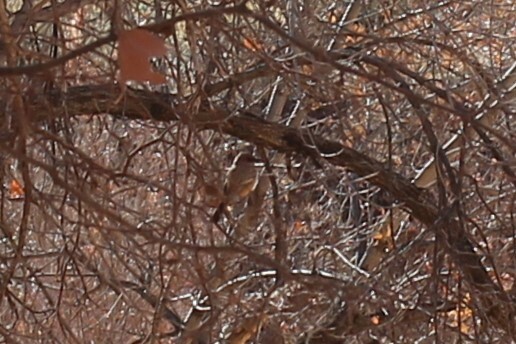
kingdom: Animalia
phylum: Chordata
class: Aves
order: Passeriformes
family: Tyrannidae
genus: Sayornis
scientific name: Sayornis saya
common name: Say's phoebe
